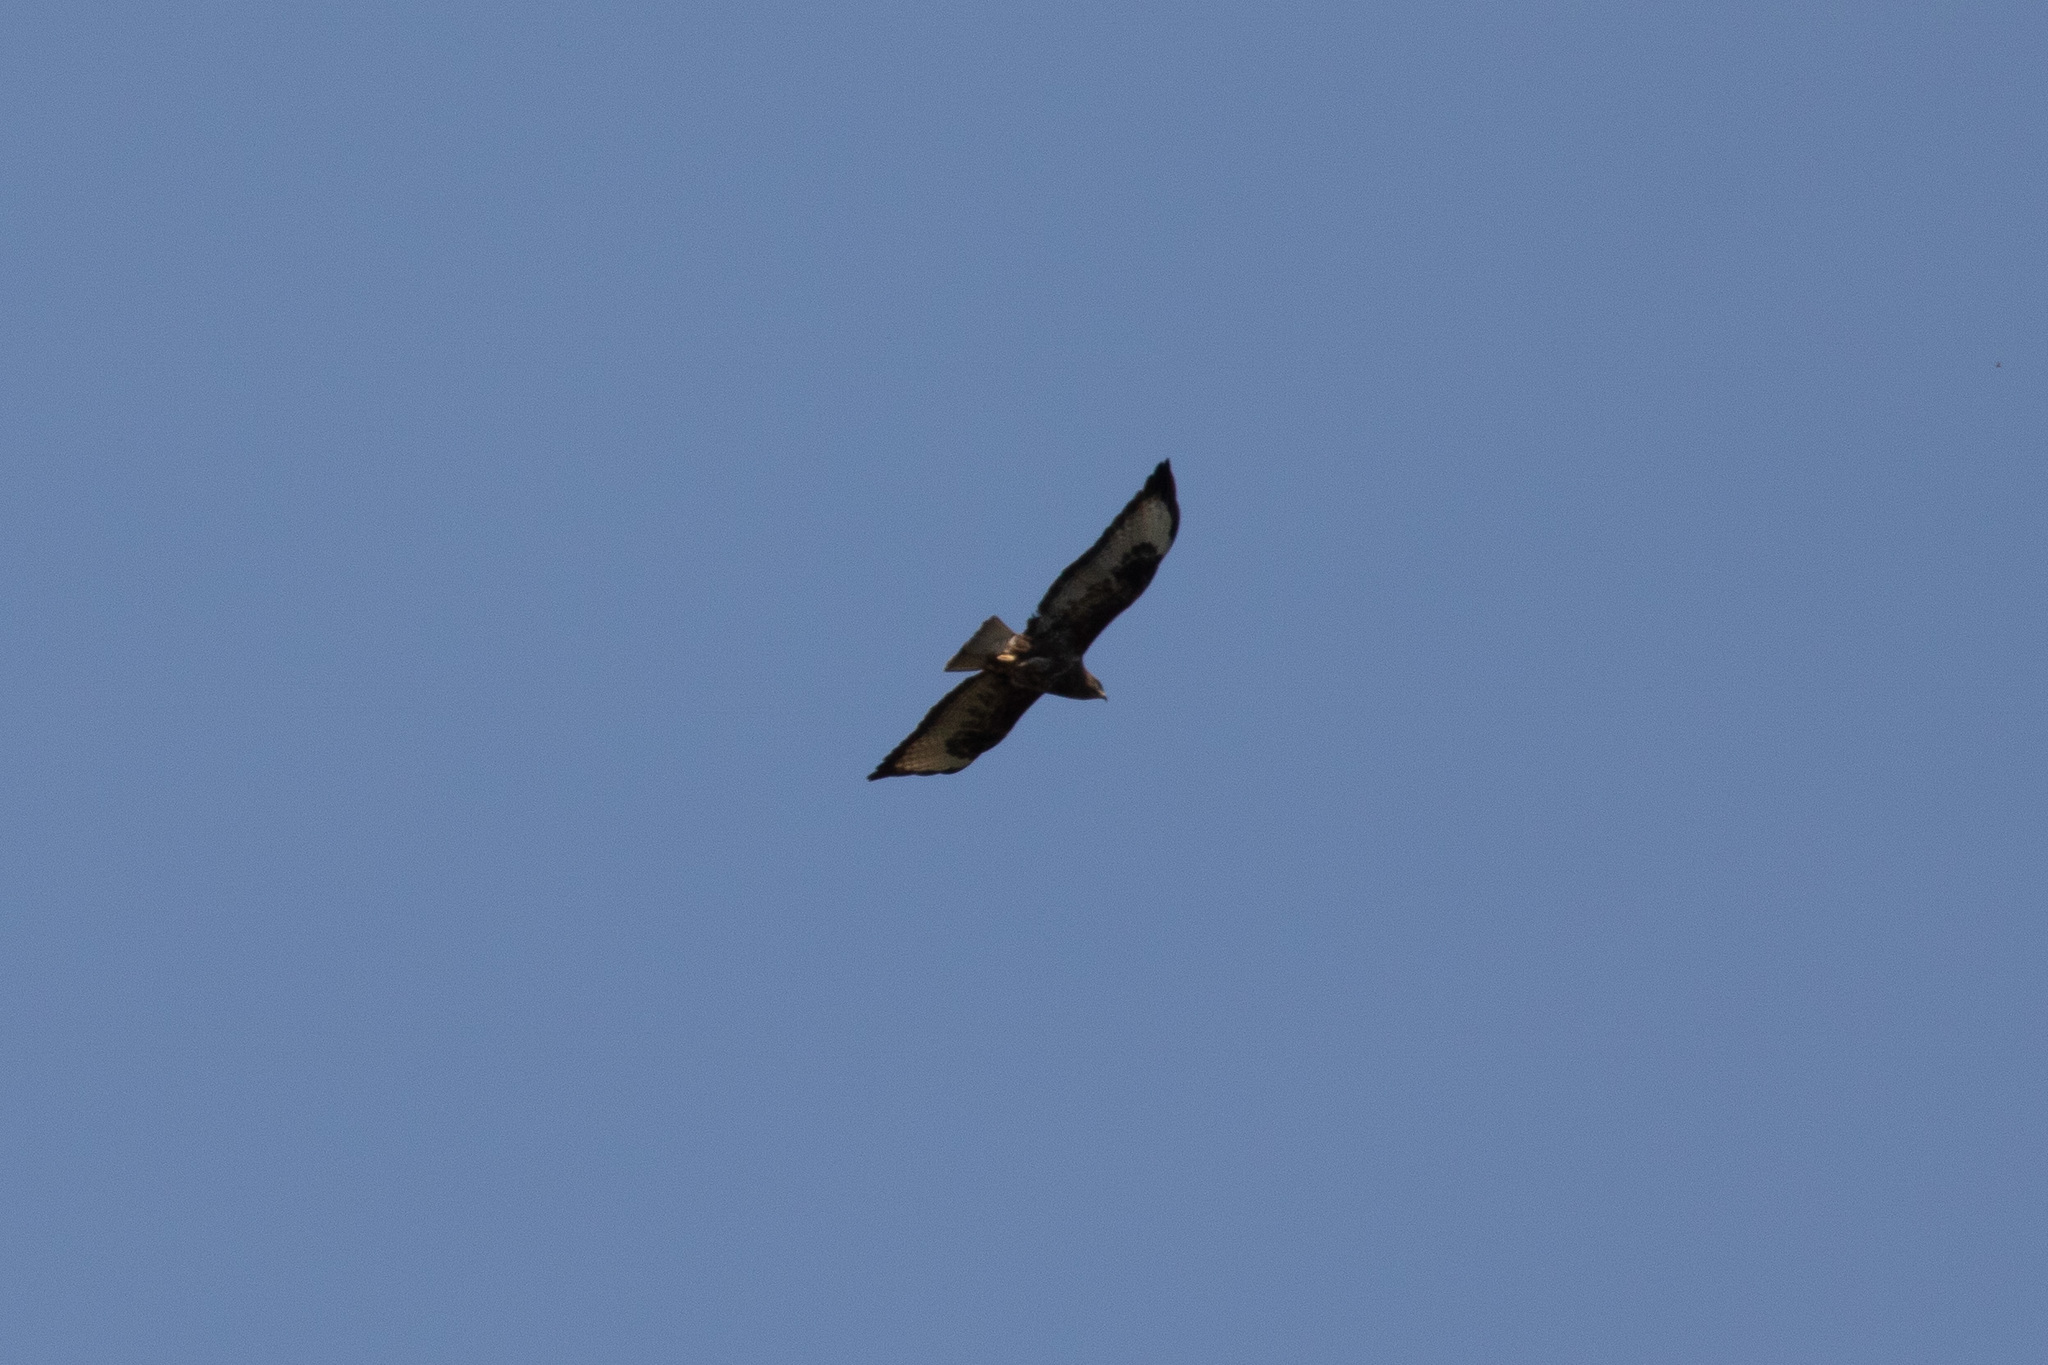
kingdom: Animalia
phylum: Chordata
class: Aves
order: Accipitriformes
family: Accipitridae
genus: Buteo
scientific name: Buteo buteo
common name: Common buzzard
